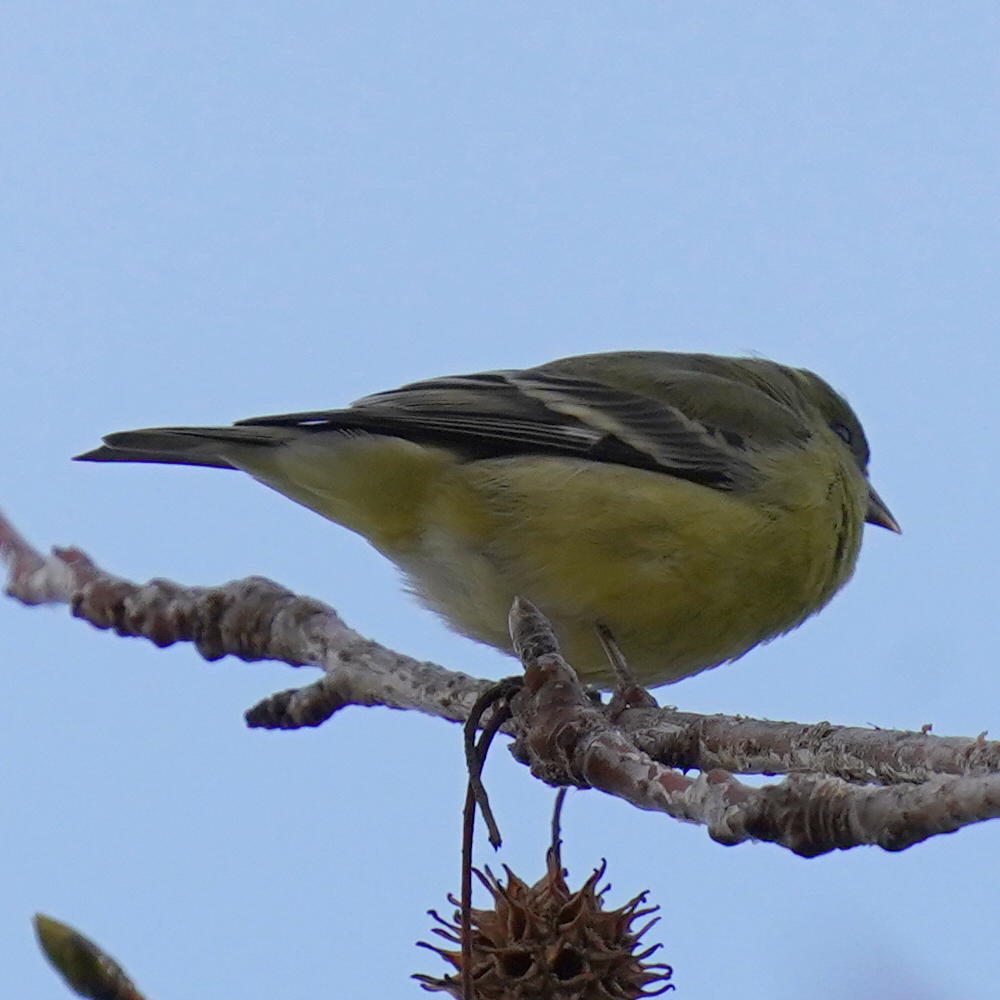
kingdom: Animalia
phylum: Chordata
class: Aves
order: Passeriformes
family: Fringillidae
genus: Spinus
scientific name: Spinus psaltria
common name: Lesser goldfinch
